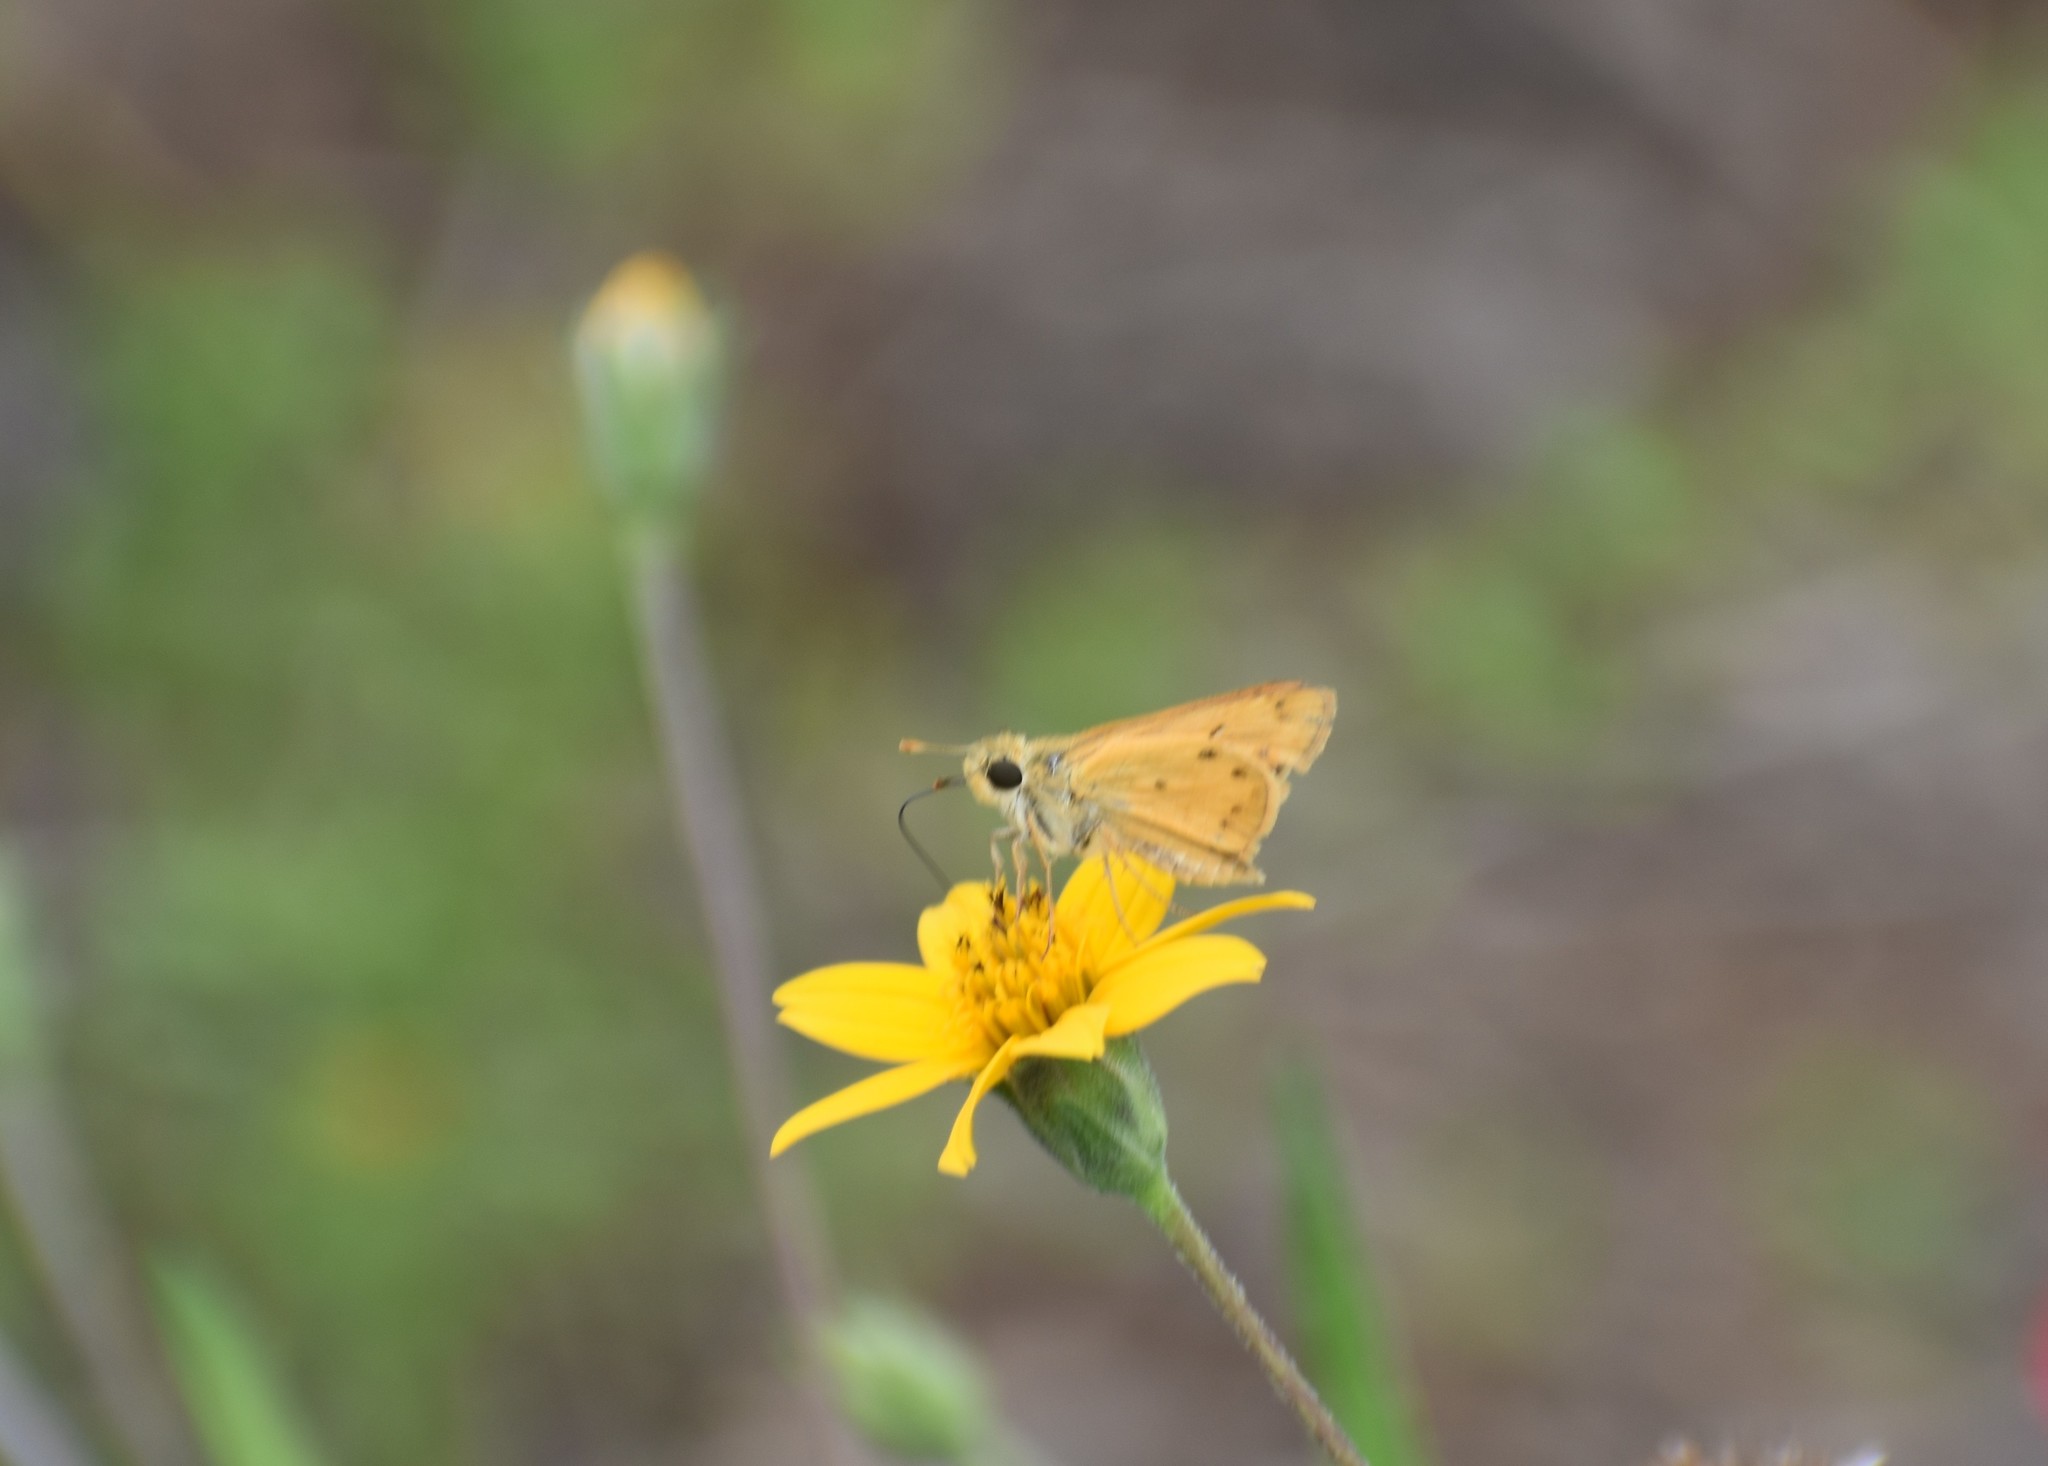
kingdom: Animalia
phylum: Arthropoda
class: Insecta
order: Lepidoptera
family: Hesperiidae
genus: Hylephila
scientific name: Hylephila phyleus
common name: Fiery skipper
